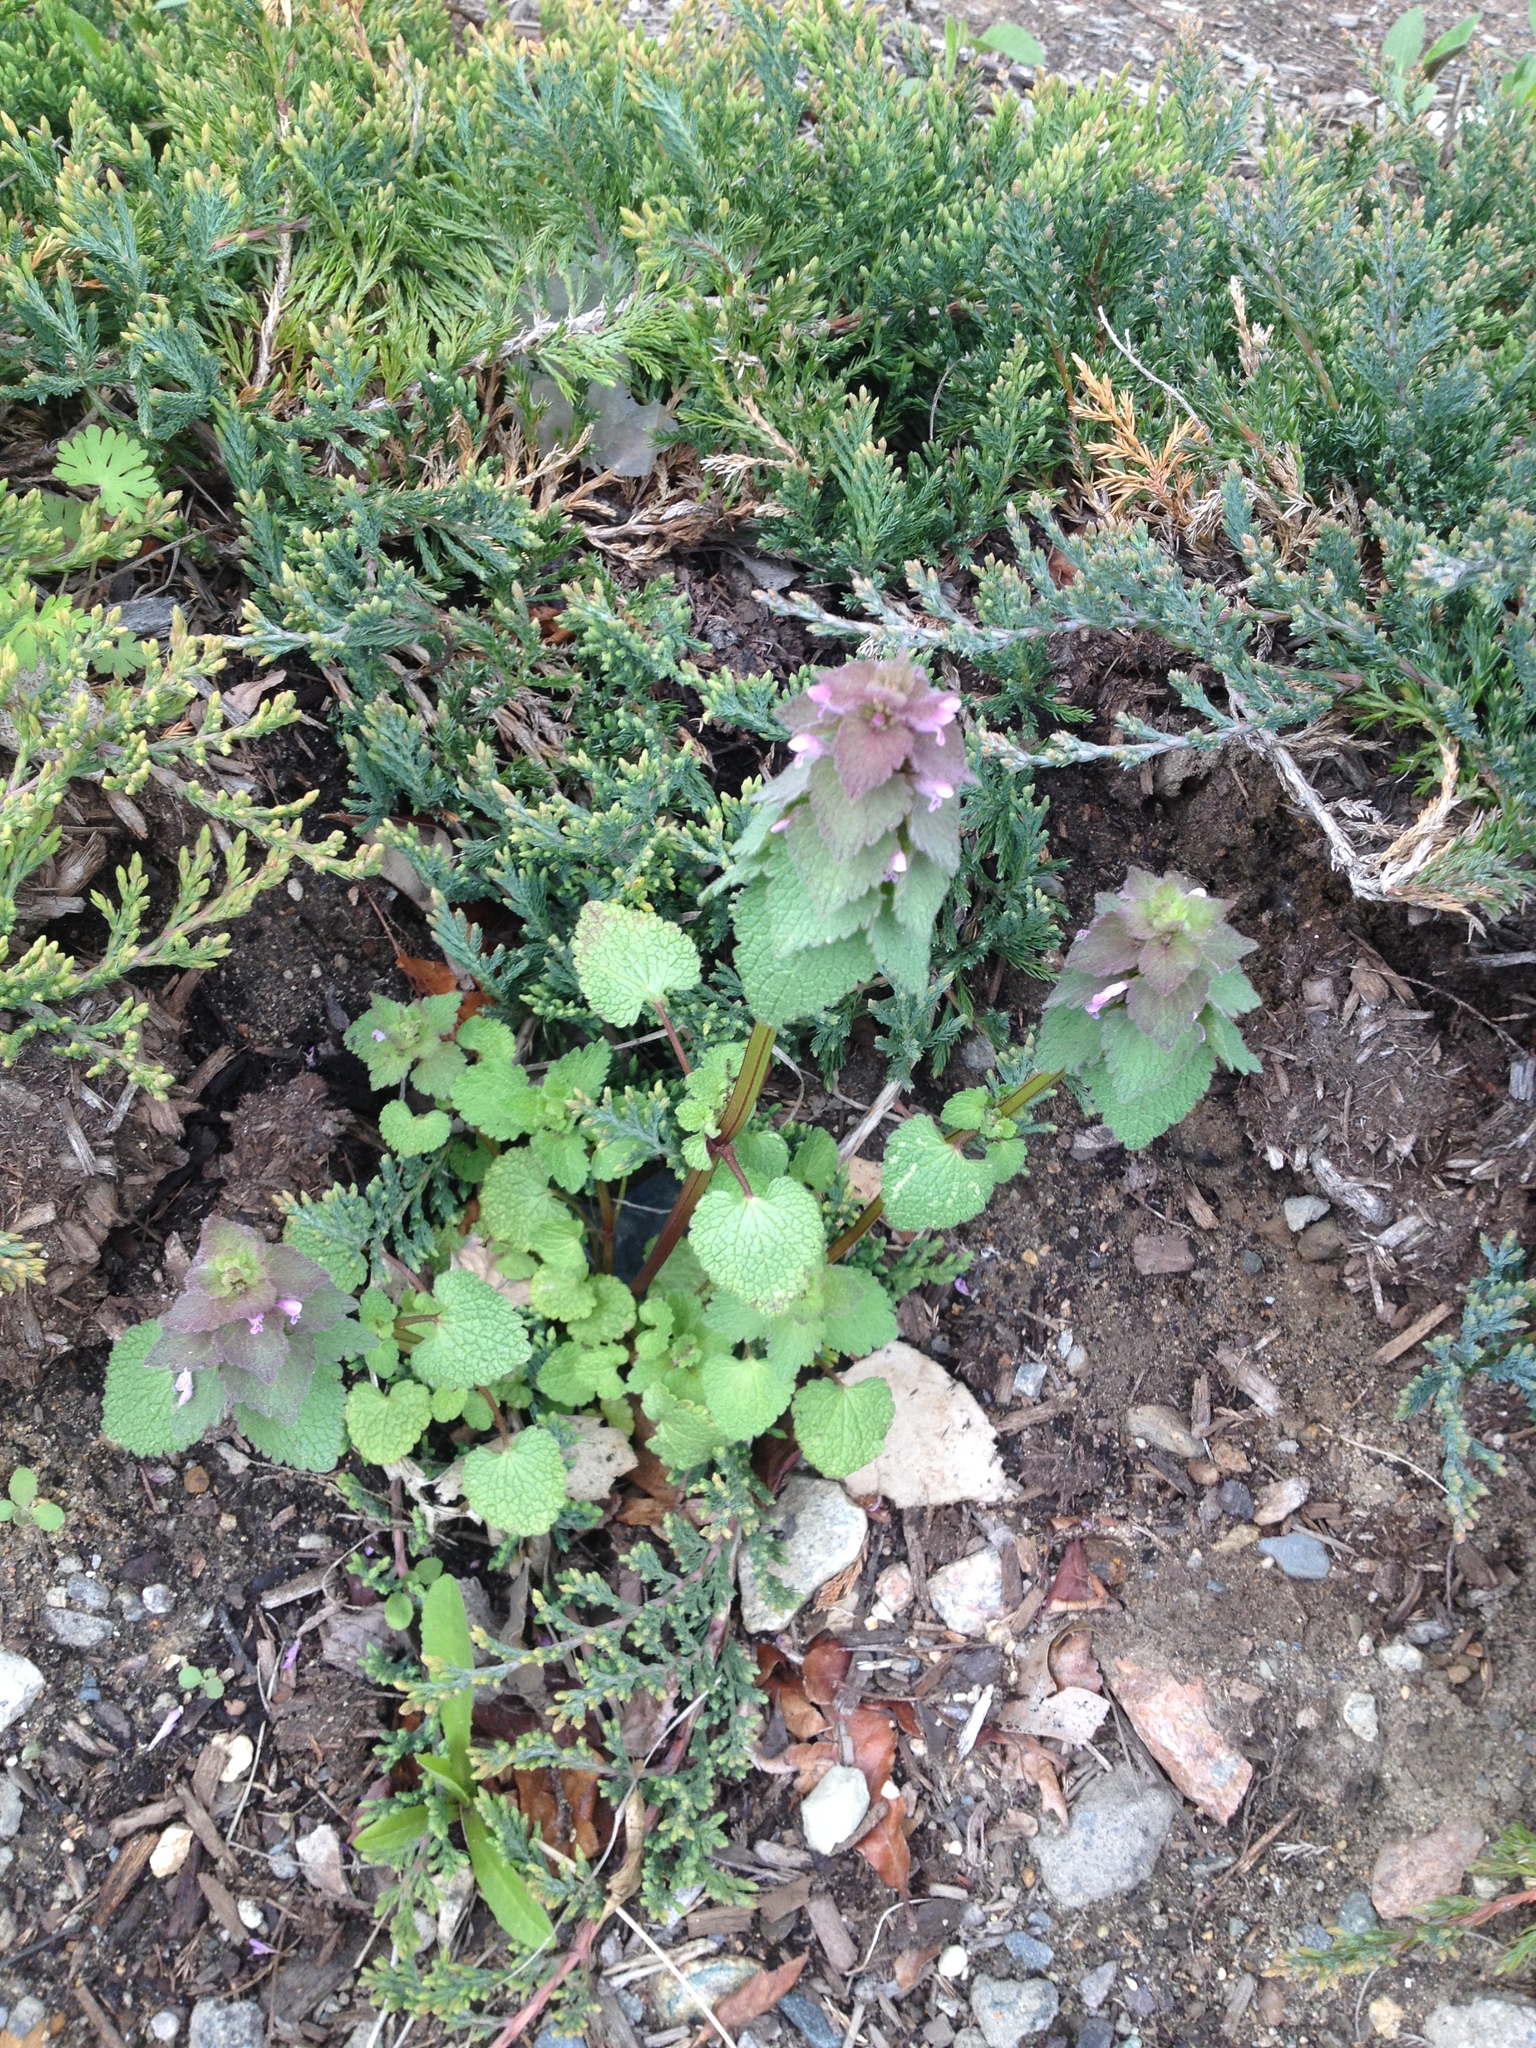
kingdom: Plantae
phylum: Tracheophyta
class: Magnoliopsida
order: Lamiales
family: Lamiaceae
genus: Lamium
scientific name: Lamium purpureum
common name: Red dead-nettle
